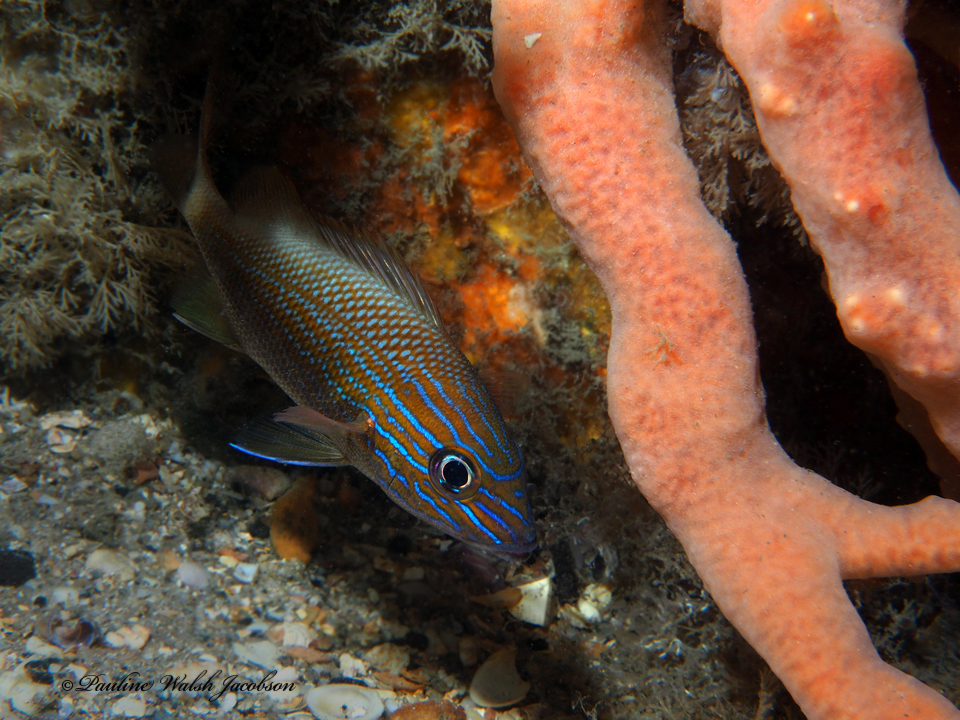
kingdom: Animalia
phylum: Chordata
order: Perciformes
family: Haemulidae
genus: Haemulon
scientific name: Haemulon plumierii
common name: White grunt
